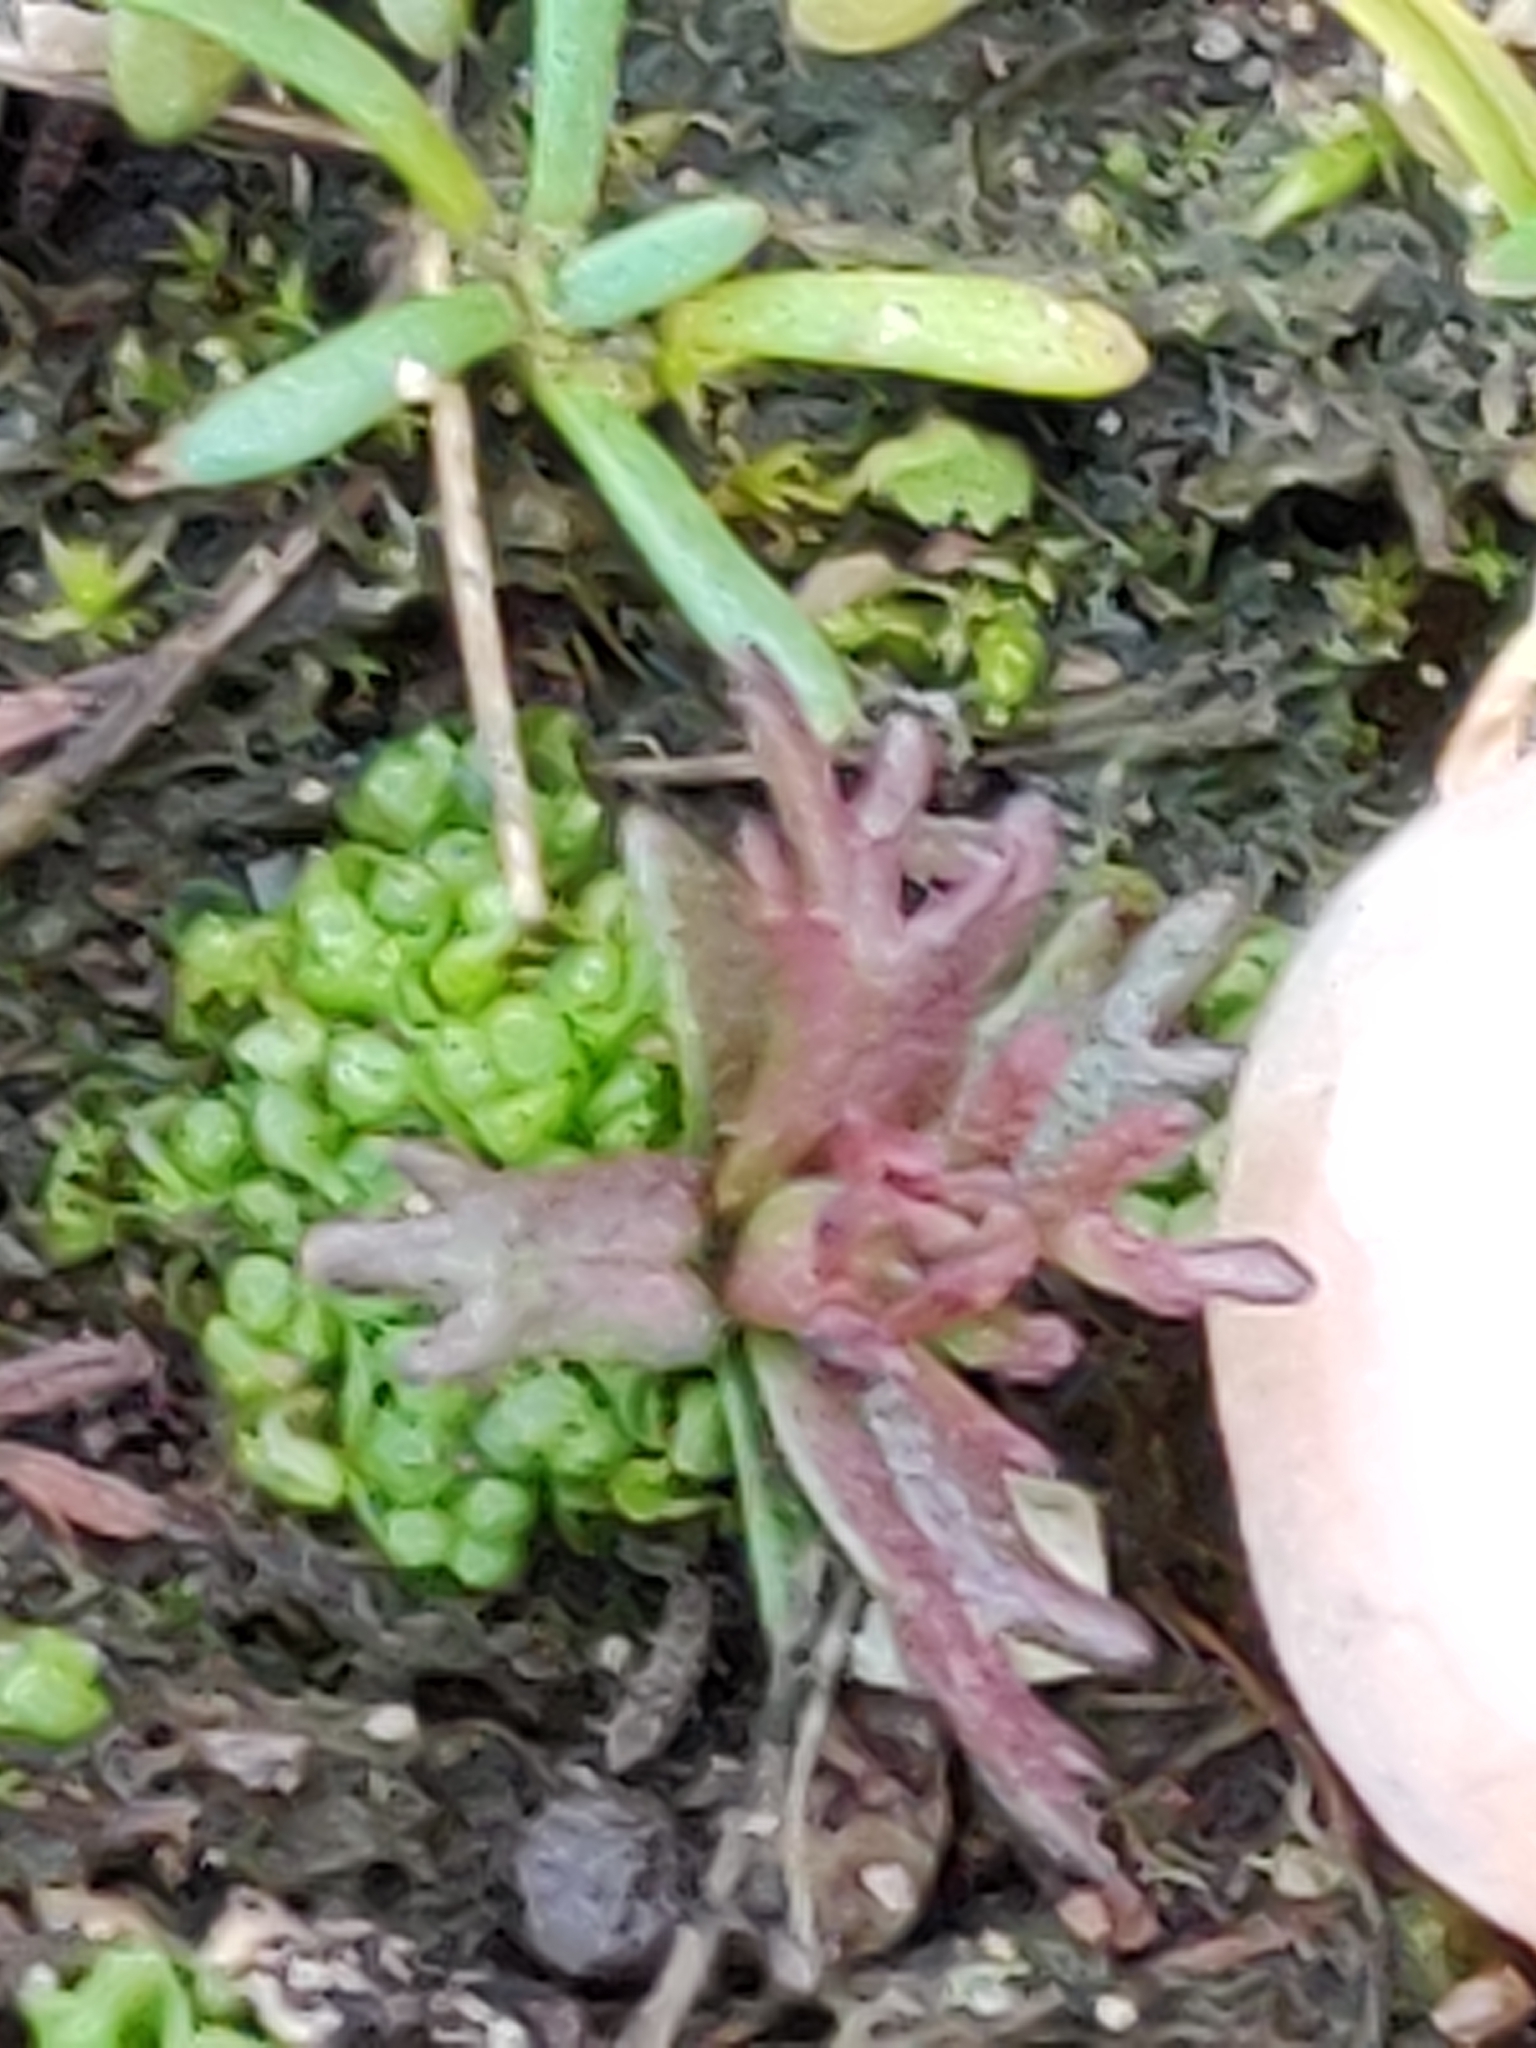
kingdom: Plantae
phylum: Tracheophyta
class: Magnoliopsida
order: Lamiales
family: Orobanchaceae
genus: Triphysaria
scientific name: Triphysaria pusilla
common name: Dwarf false owl-clover
